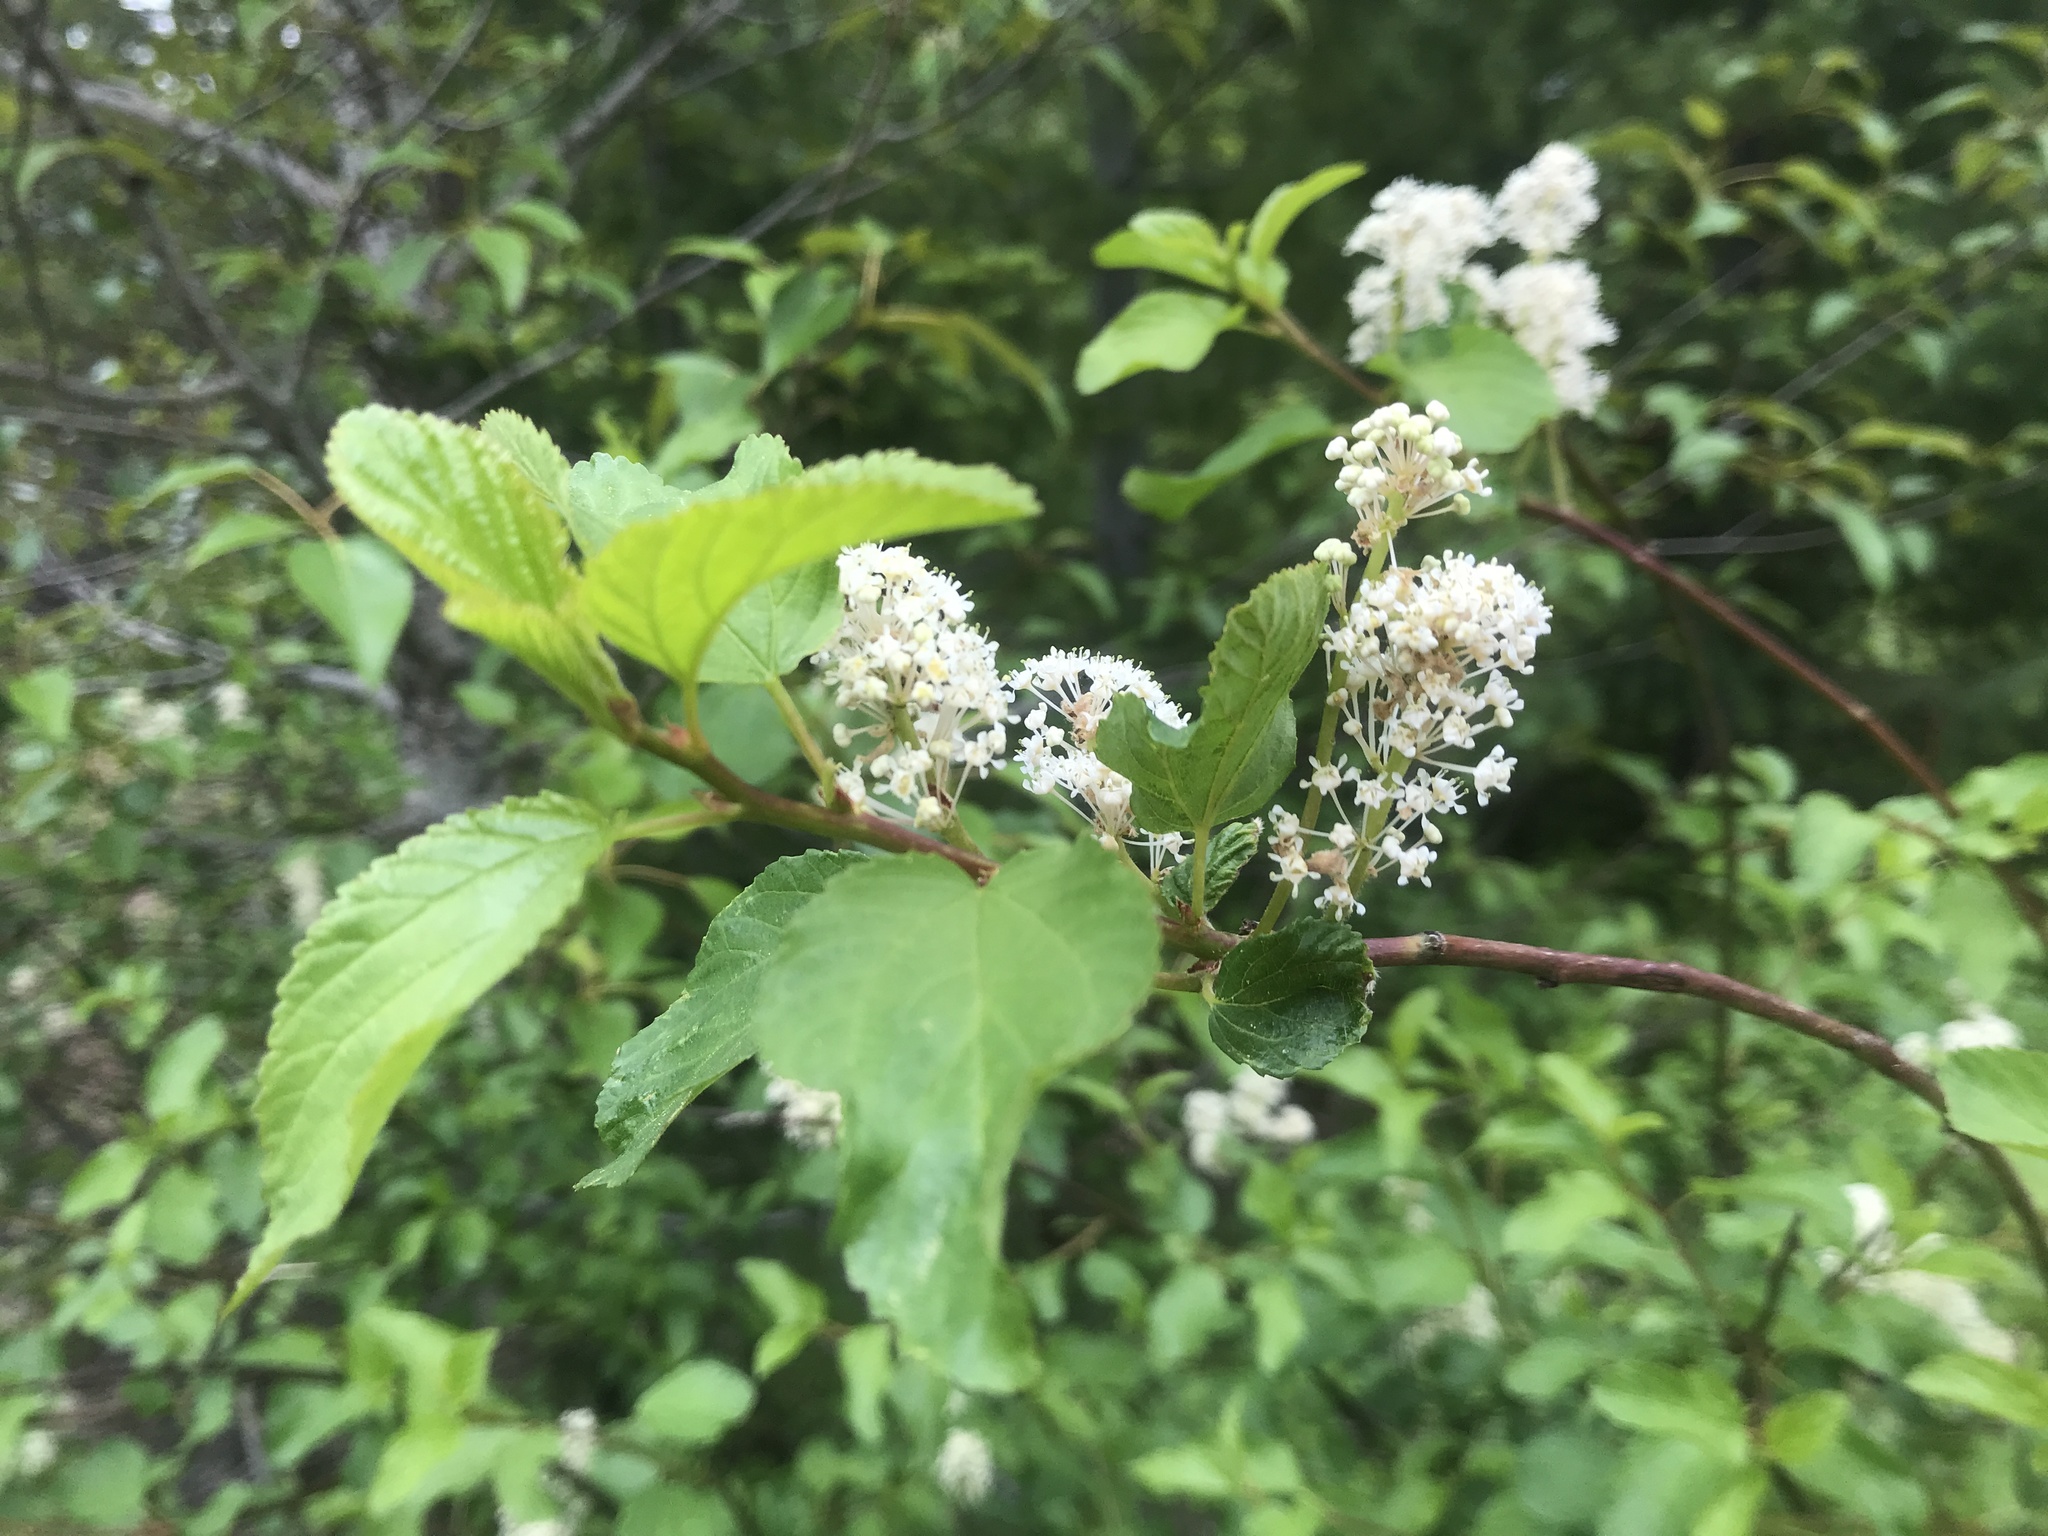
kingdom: Plantae
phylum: Tracheophyta
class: Magnoliopsida
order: Rosales
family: Rhamnaceae
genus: Ceanothus
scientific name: Ceanothus sanguineus
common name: Teatree
